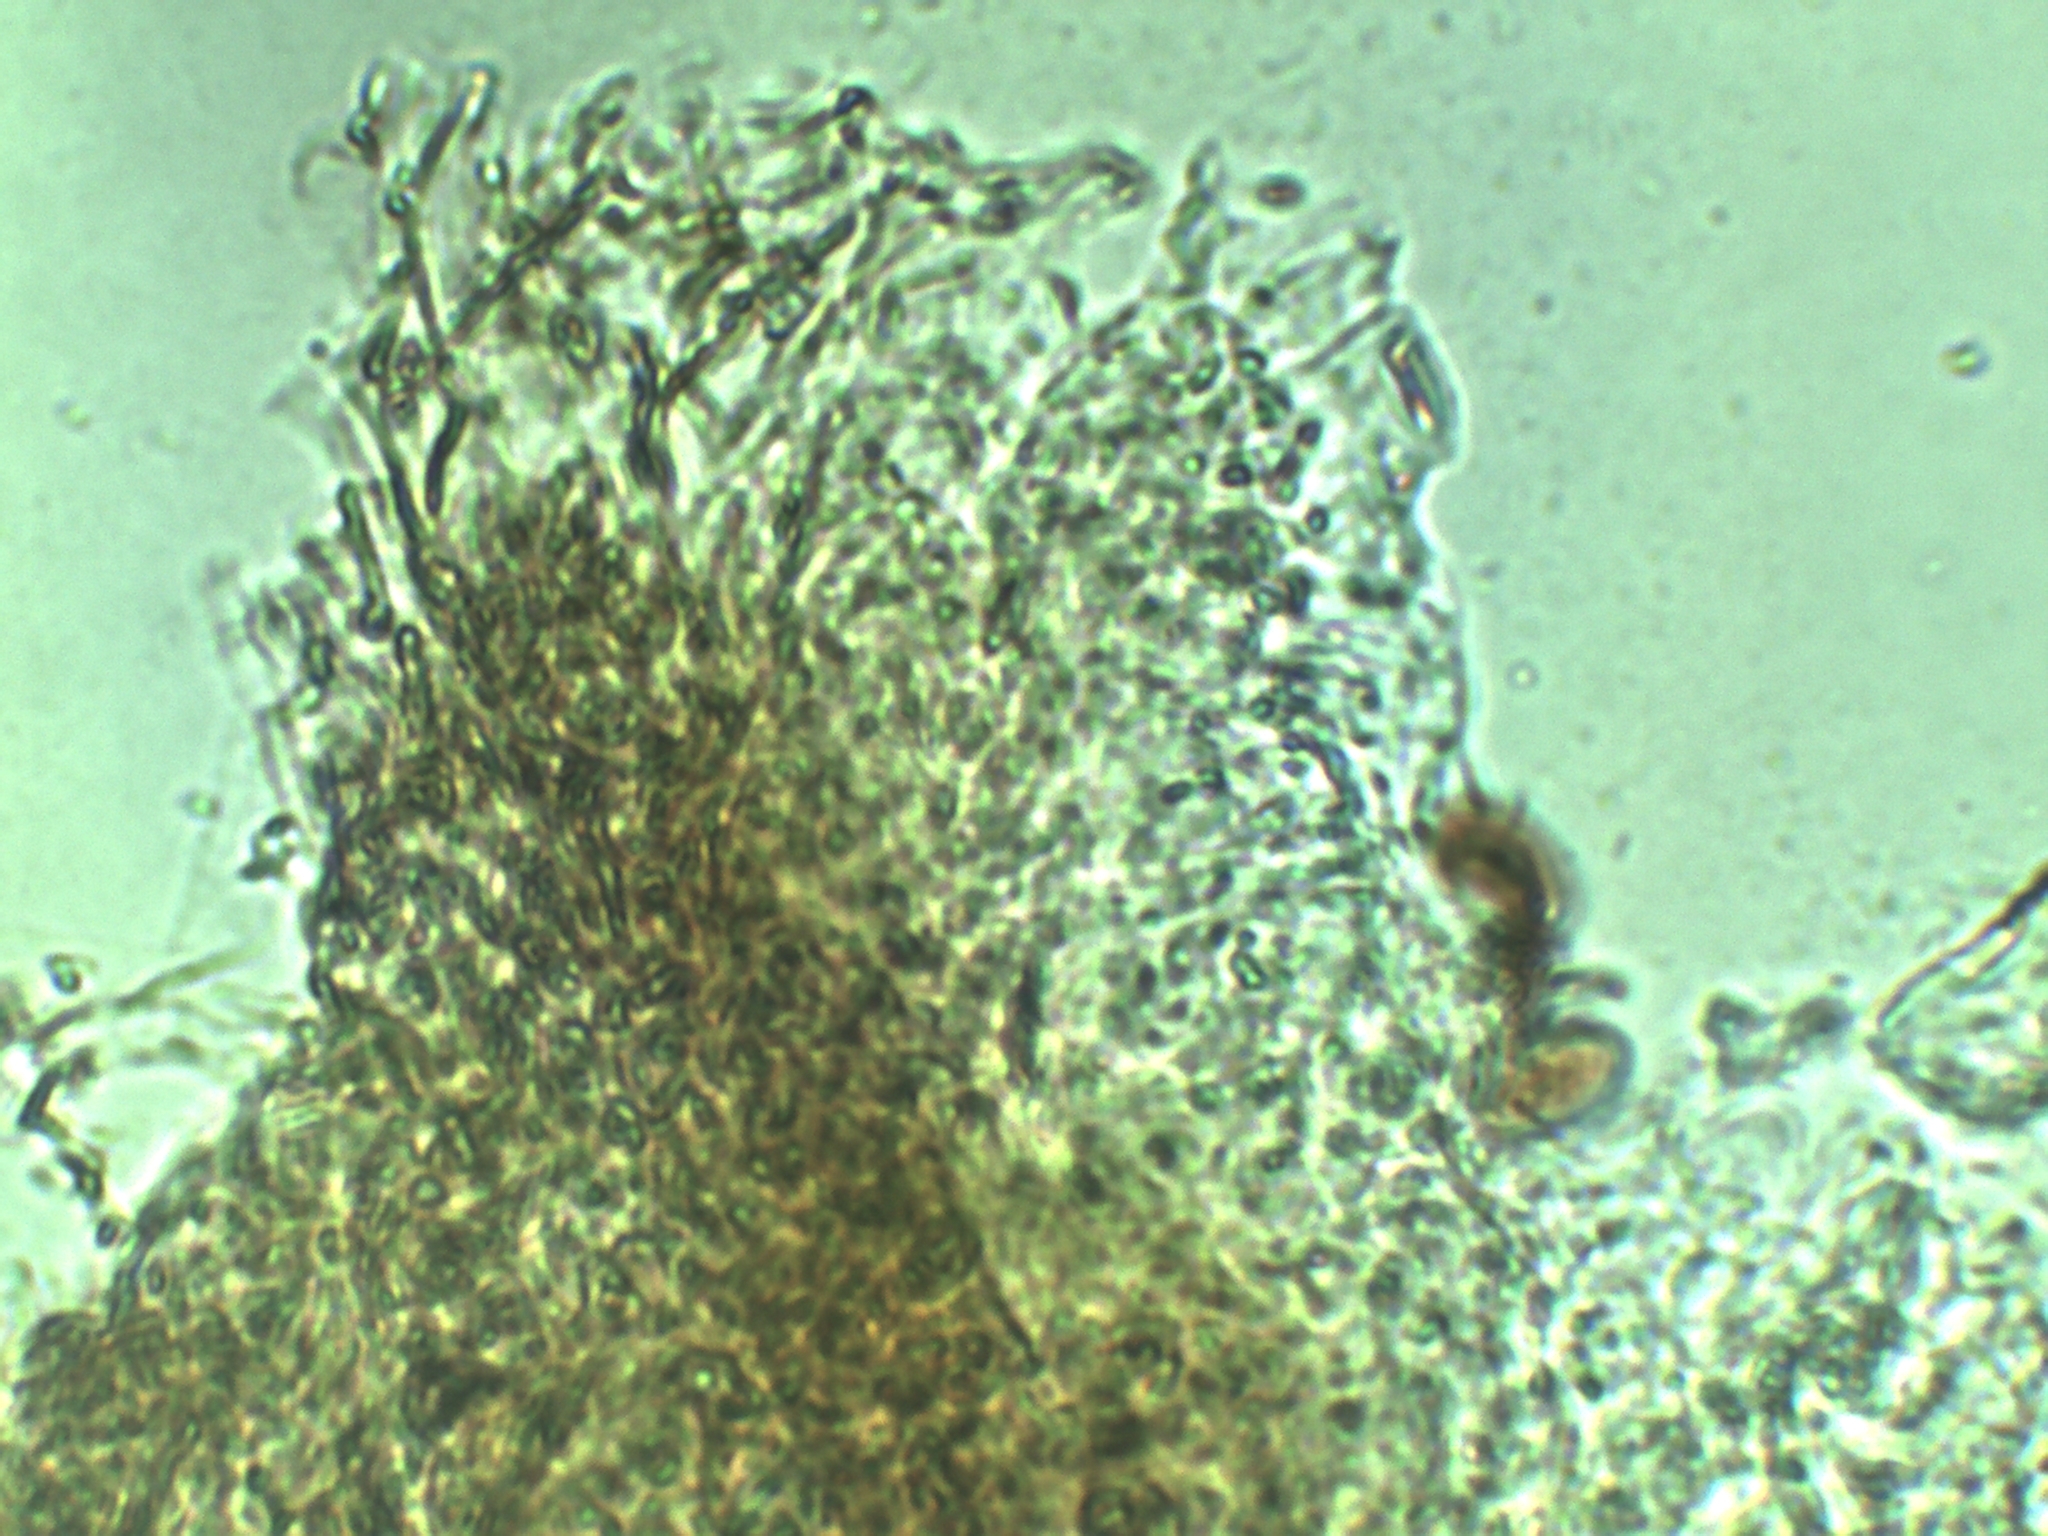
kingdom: Fungi
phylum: Basidiomycota
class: Agaricomycetes
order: Agaricales
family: Psathyrellaceae
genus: Psathyrella
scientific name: Psathyrella aquatica
